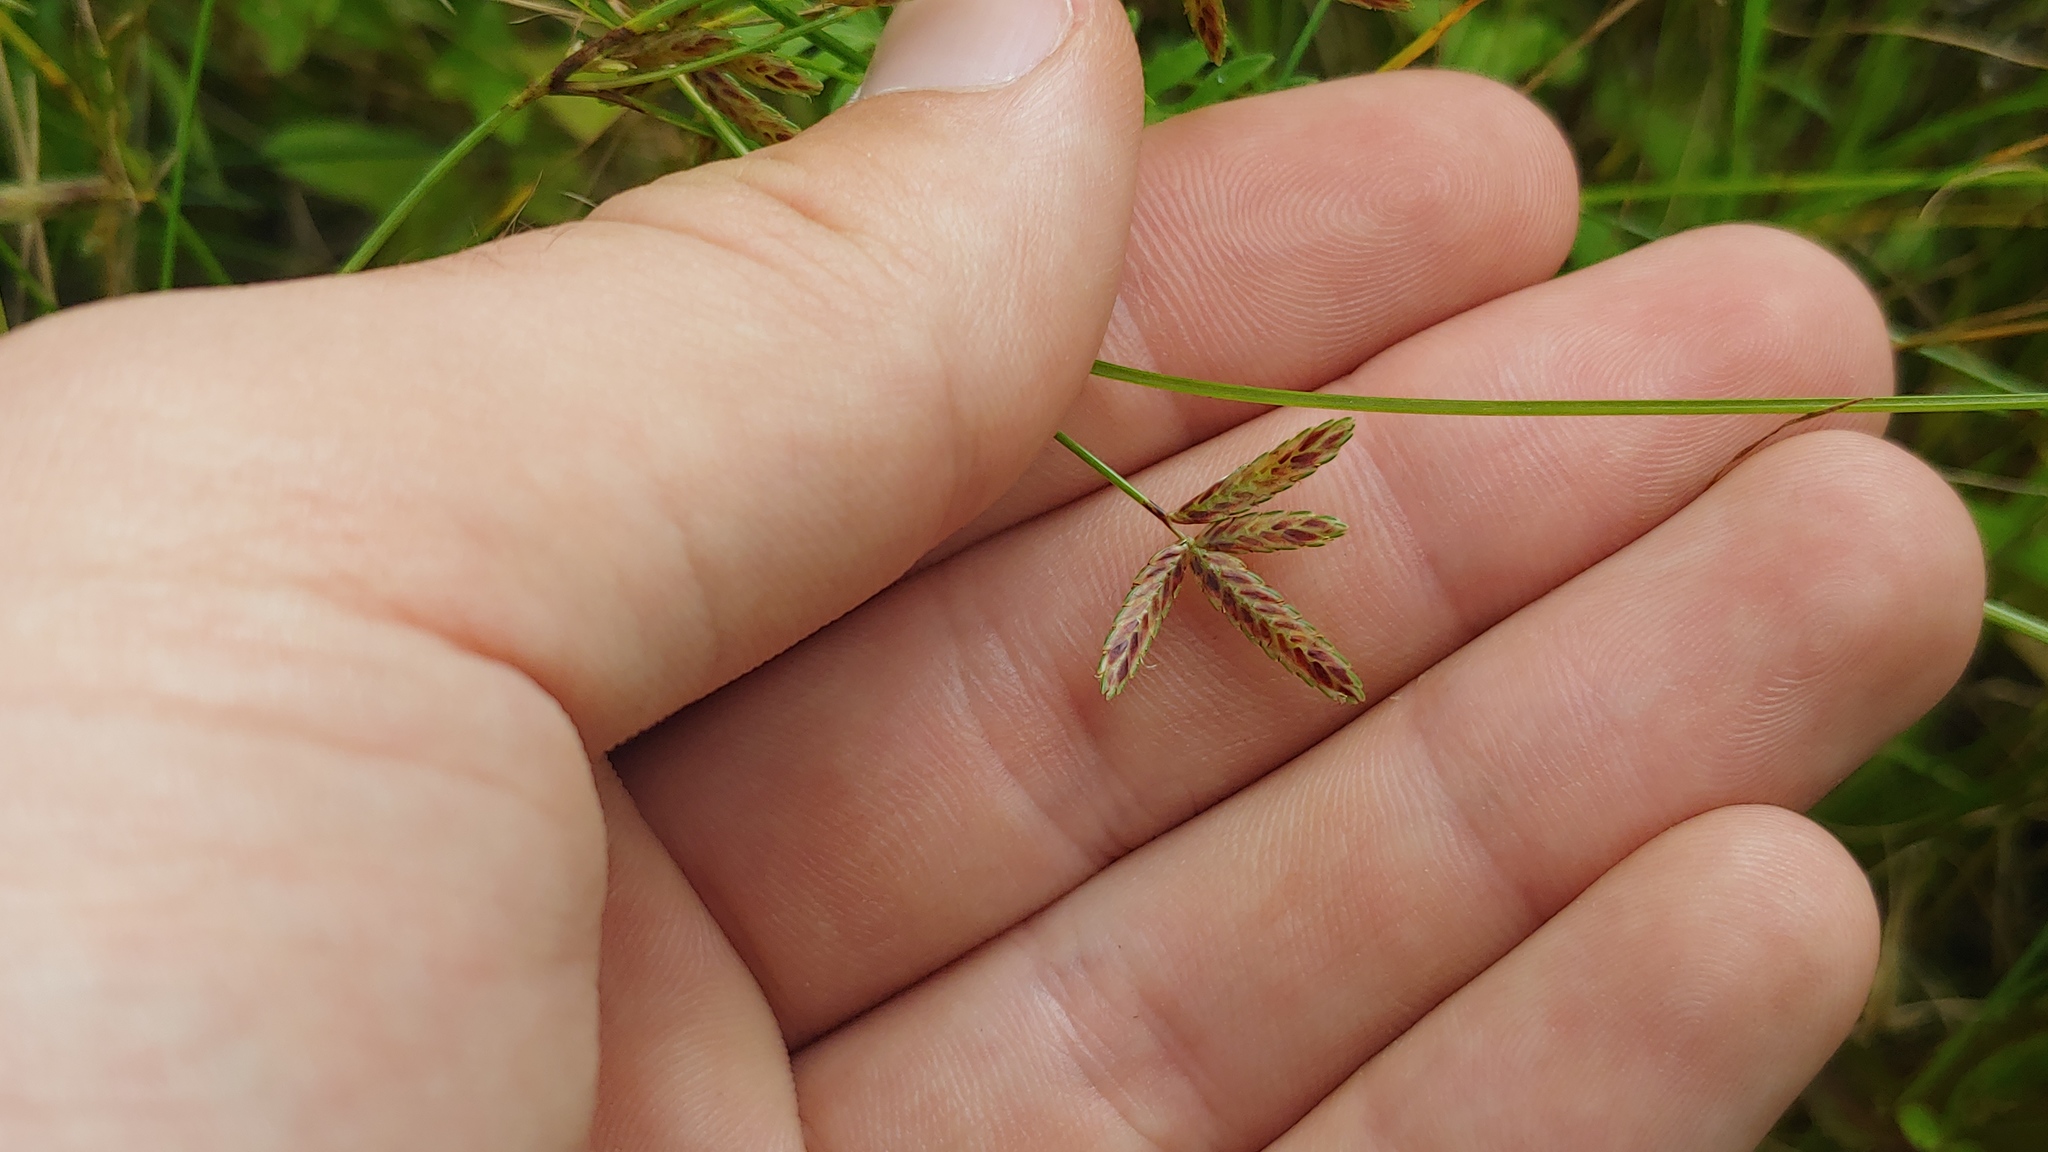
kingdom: Plantae
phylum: Tracheophyta
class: Liliopsida
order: Poales
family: Cyperaceae
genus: Cyperus
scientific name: Cyperus bipartitus
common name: Brook flatsedge
